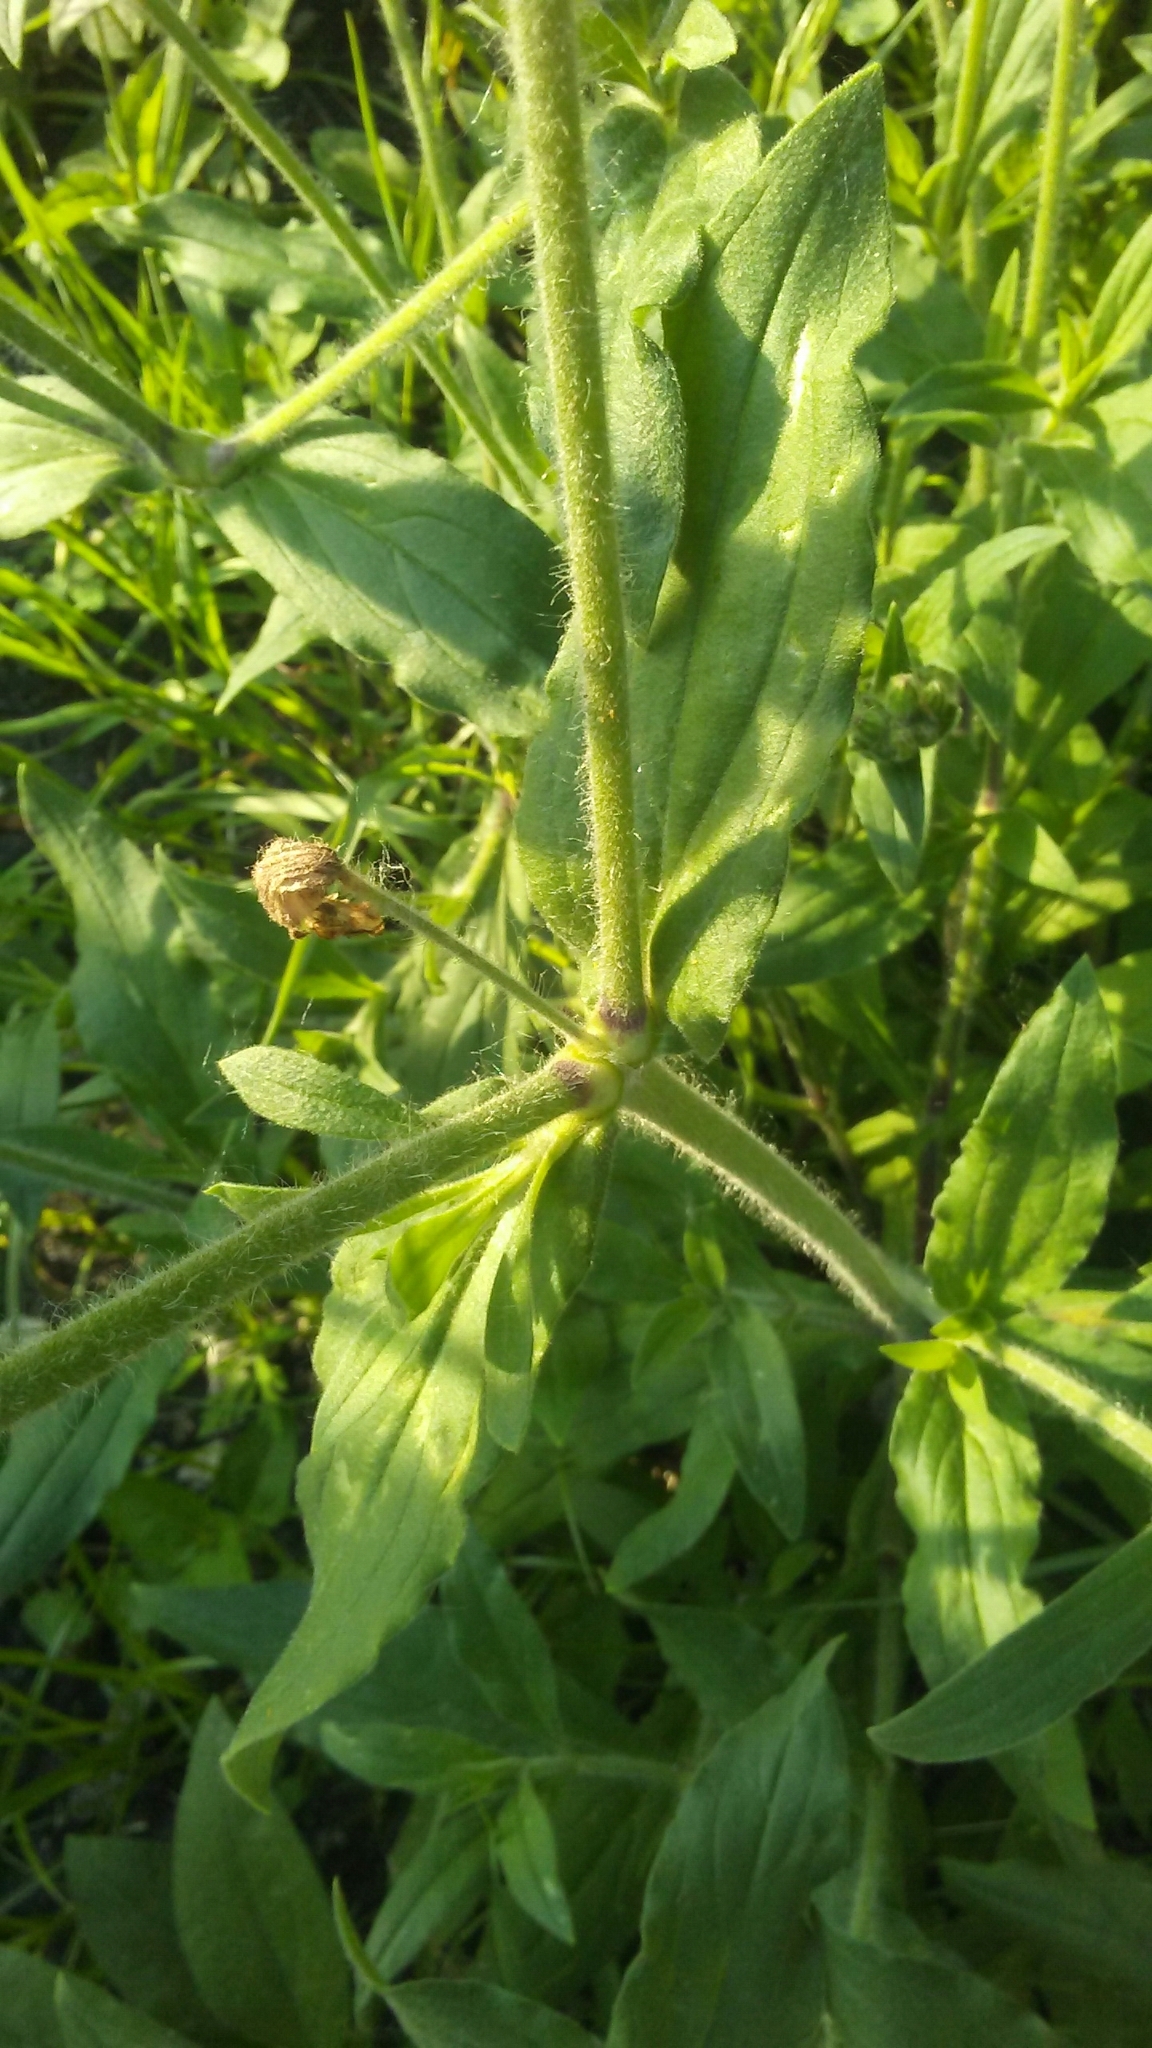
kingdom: Plantae
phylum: Tracheophyta
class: Magnoliopsida
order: Caryophyllales
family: Caryophyllaceae
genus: Silene
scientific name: Silene latifolia
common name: White campion
